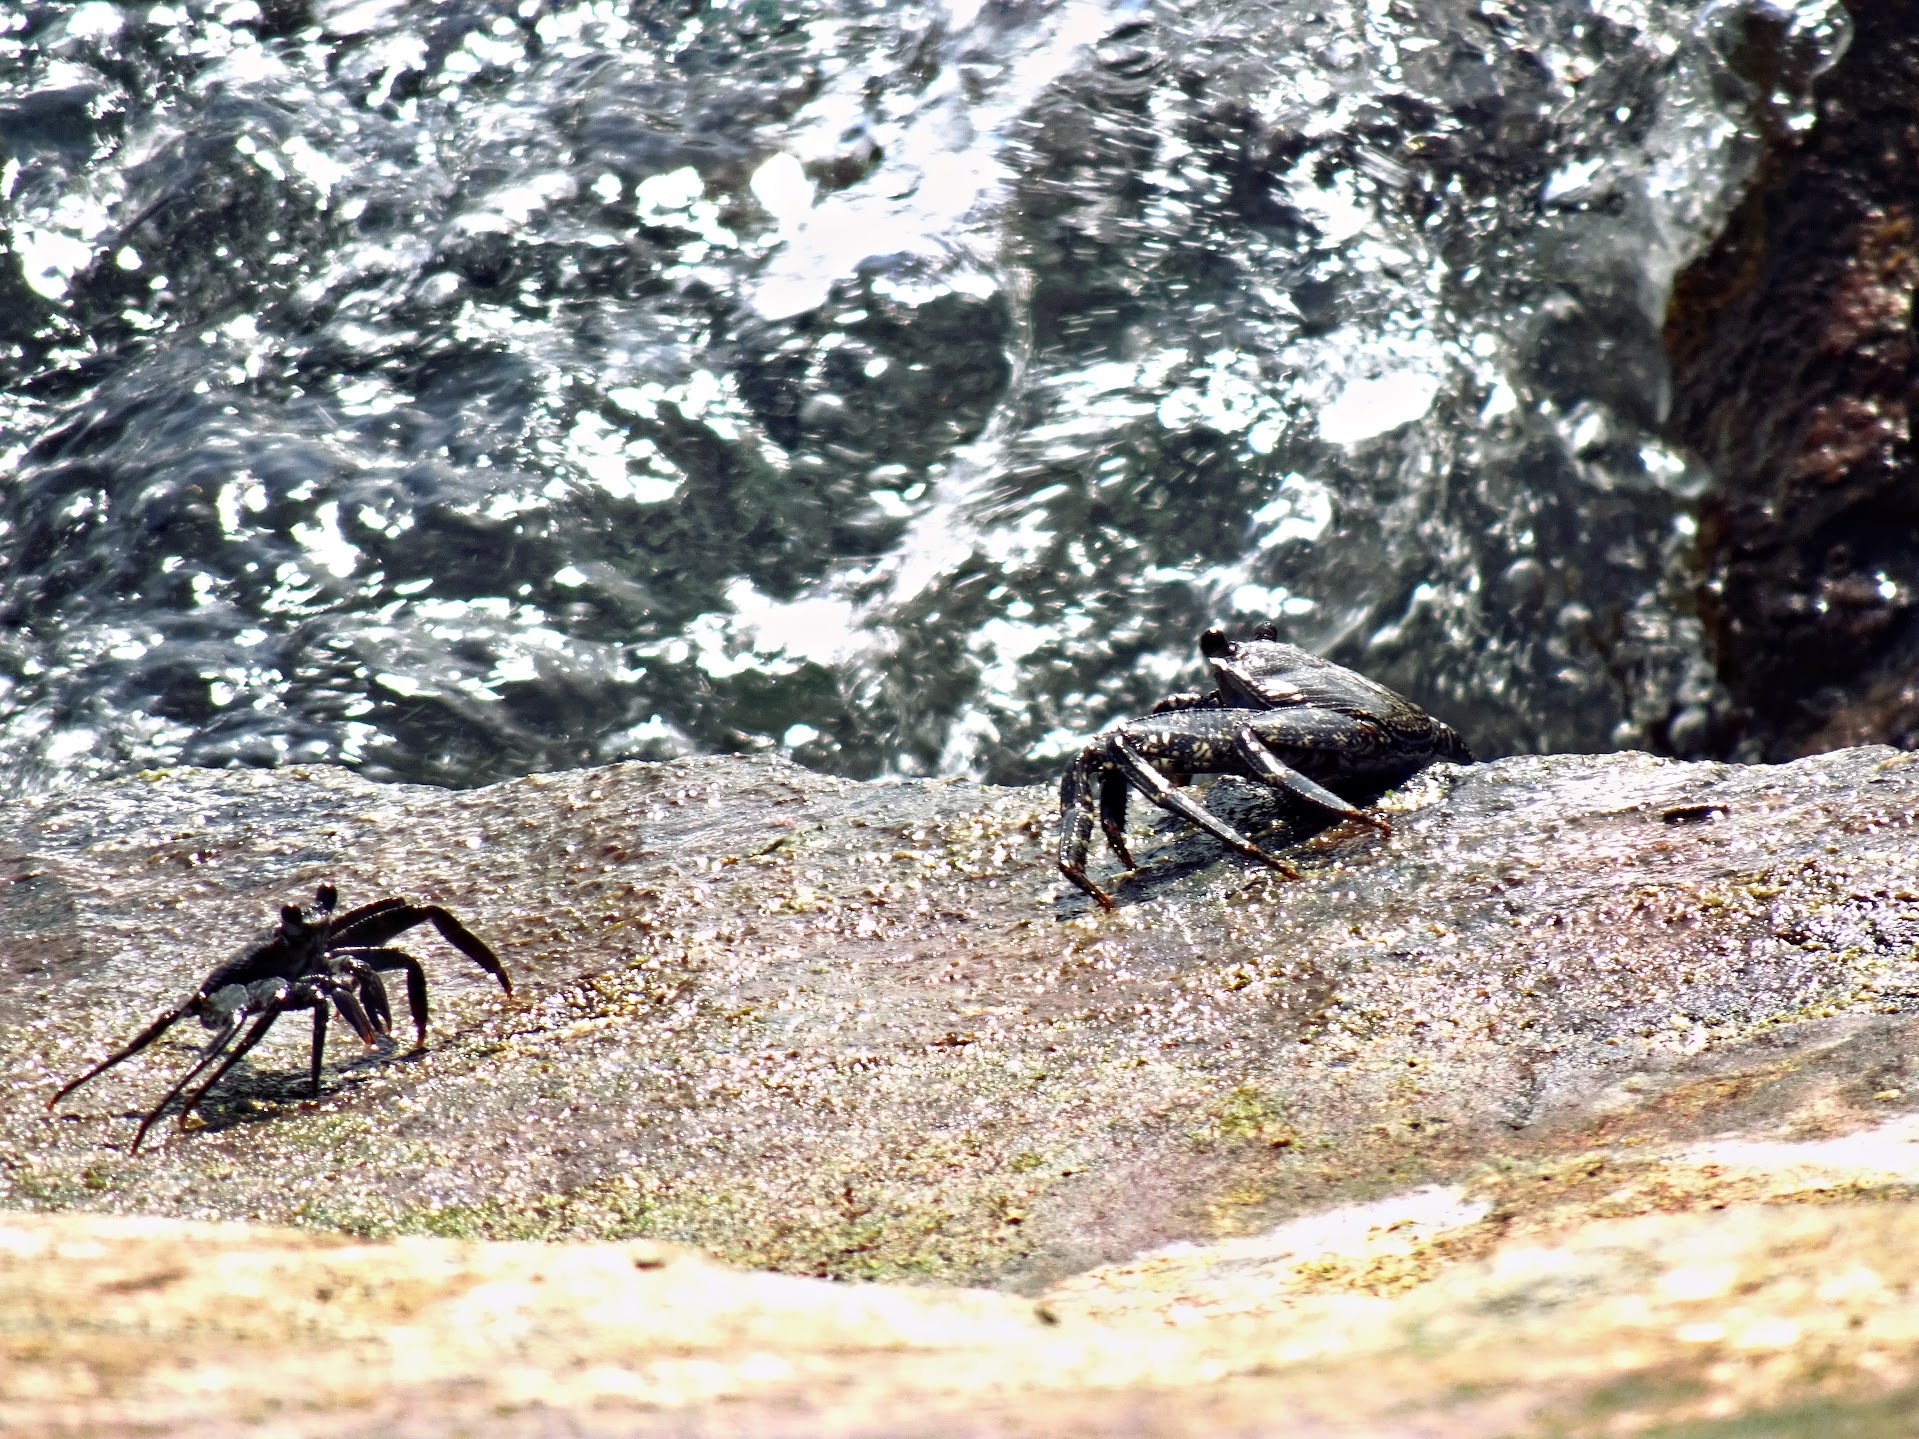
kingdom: Animalia
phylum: Arthropoda
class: Malacostraca
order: Decapoda
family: Grapsidae
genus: Grapsus
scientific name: Grapsus adscensionis
